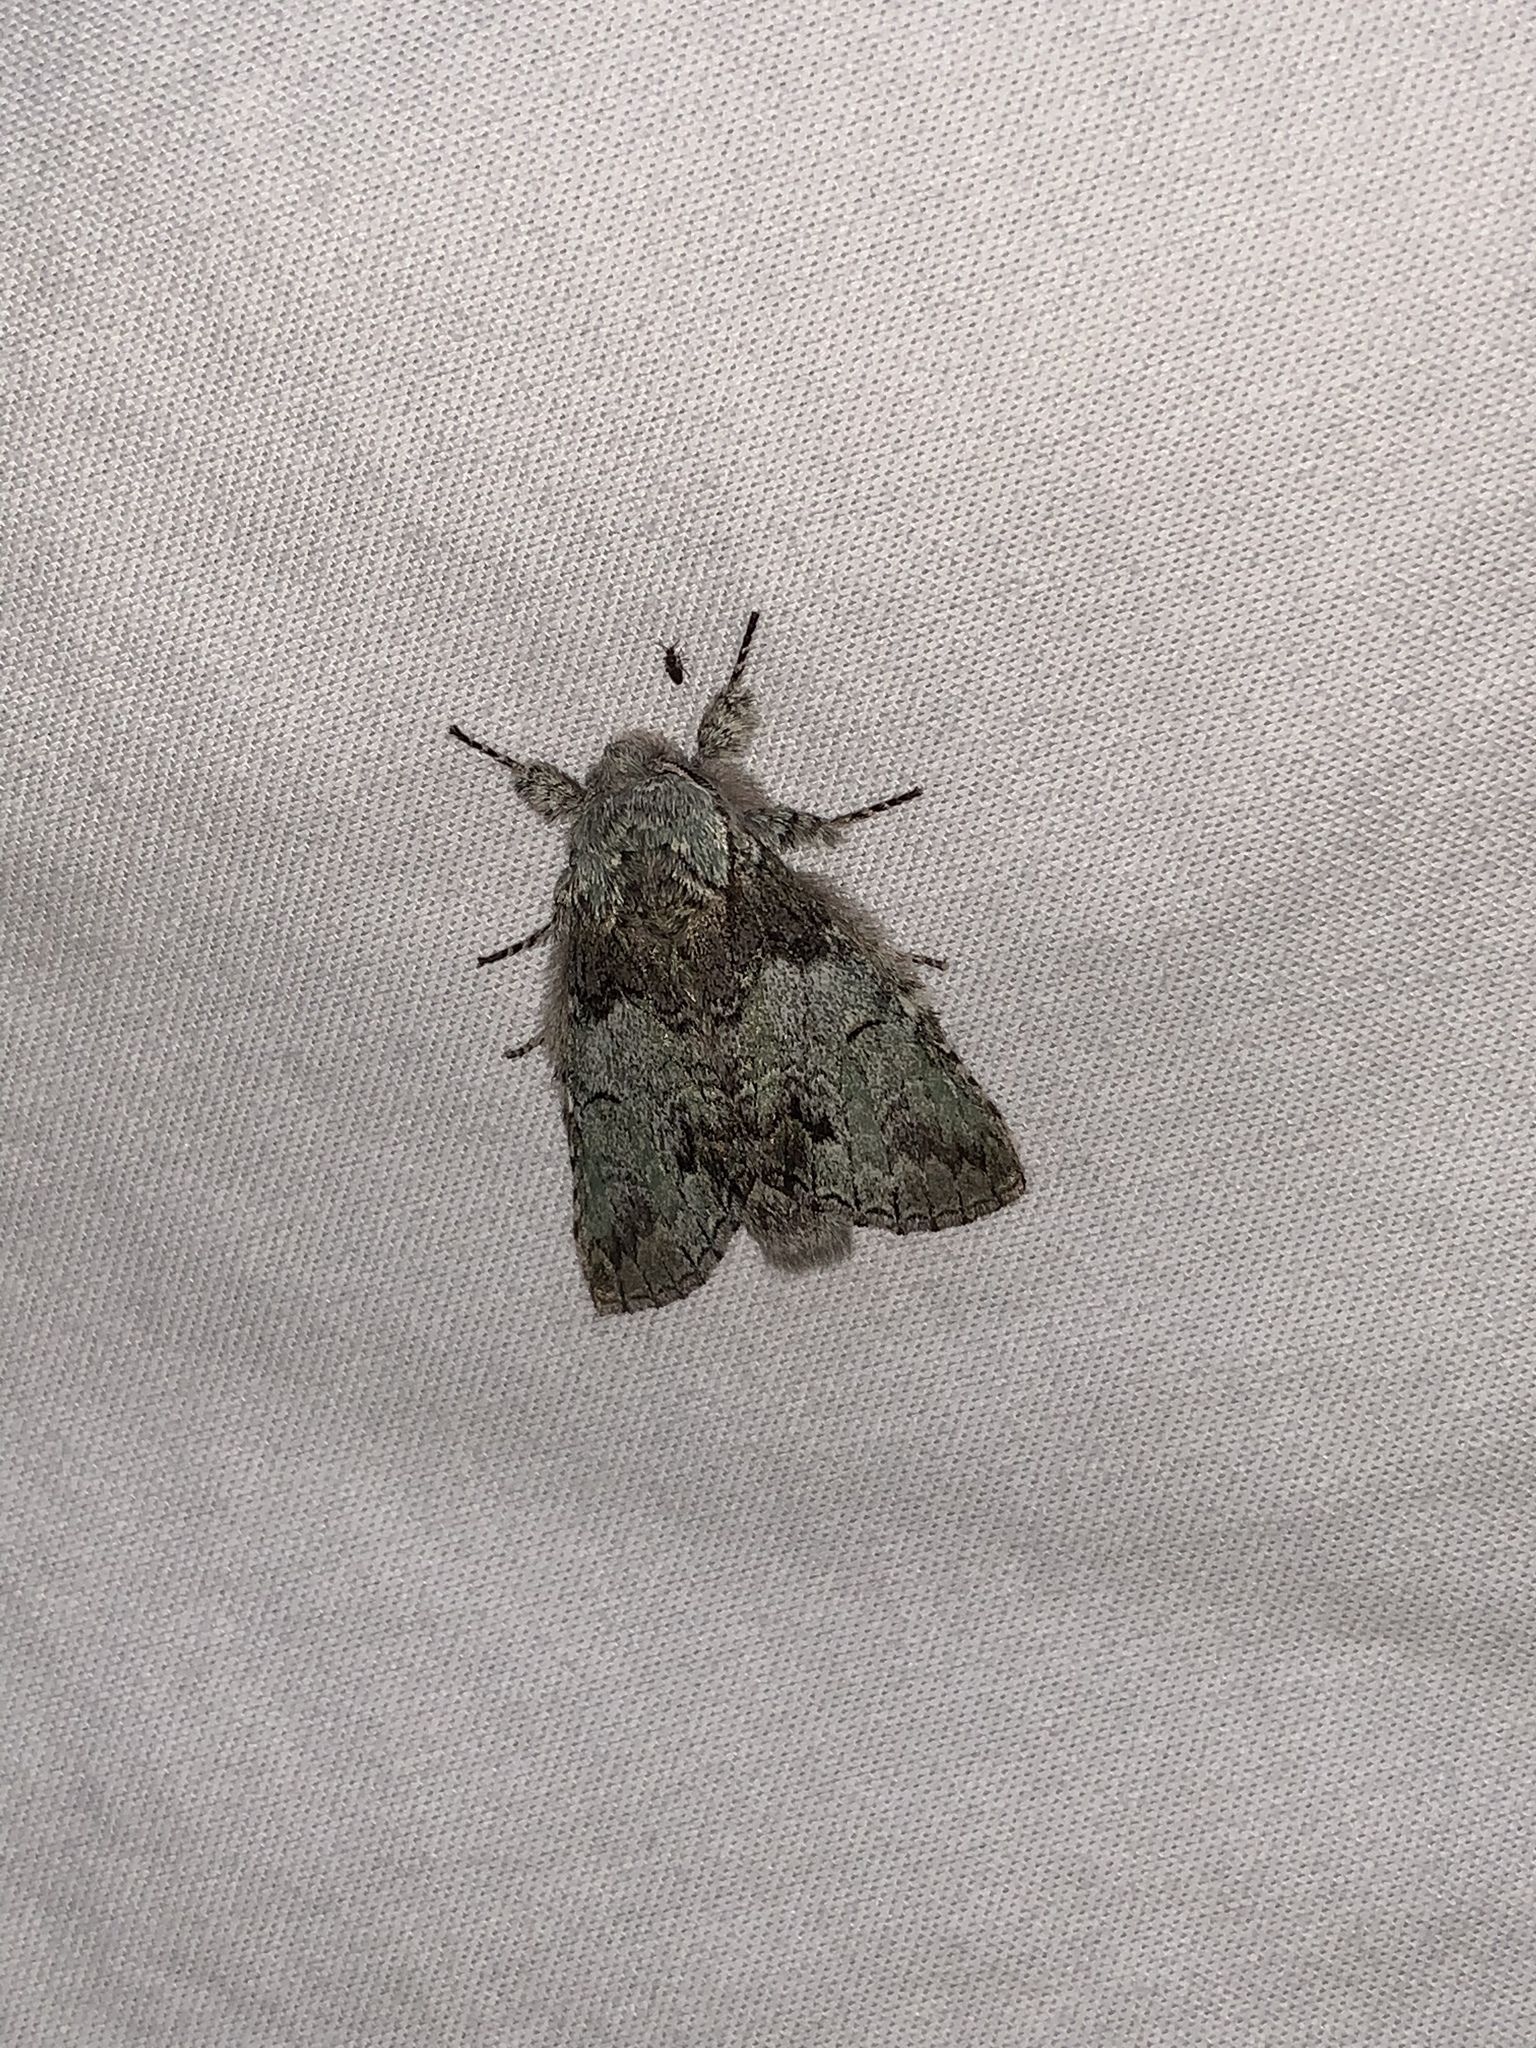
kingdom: Animalia
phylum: Arthropoda
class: Insecta
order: Lepidoptera
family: Notodontidae
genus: Macrurocampa
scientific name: Macrurocampa marthesia
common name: Mottled prominent
